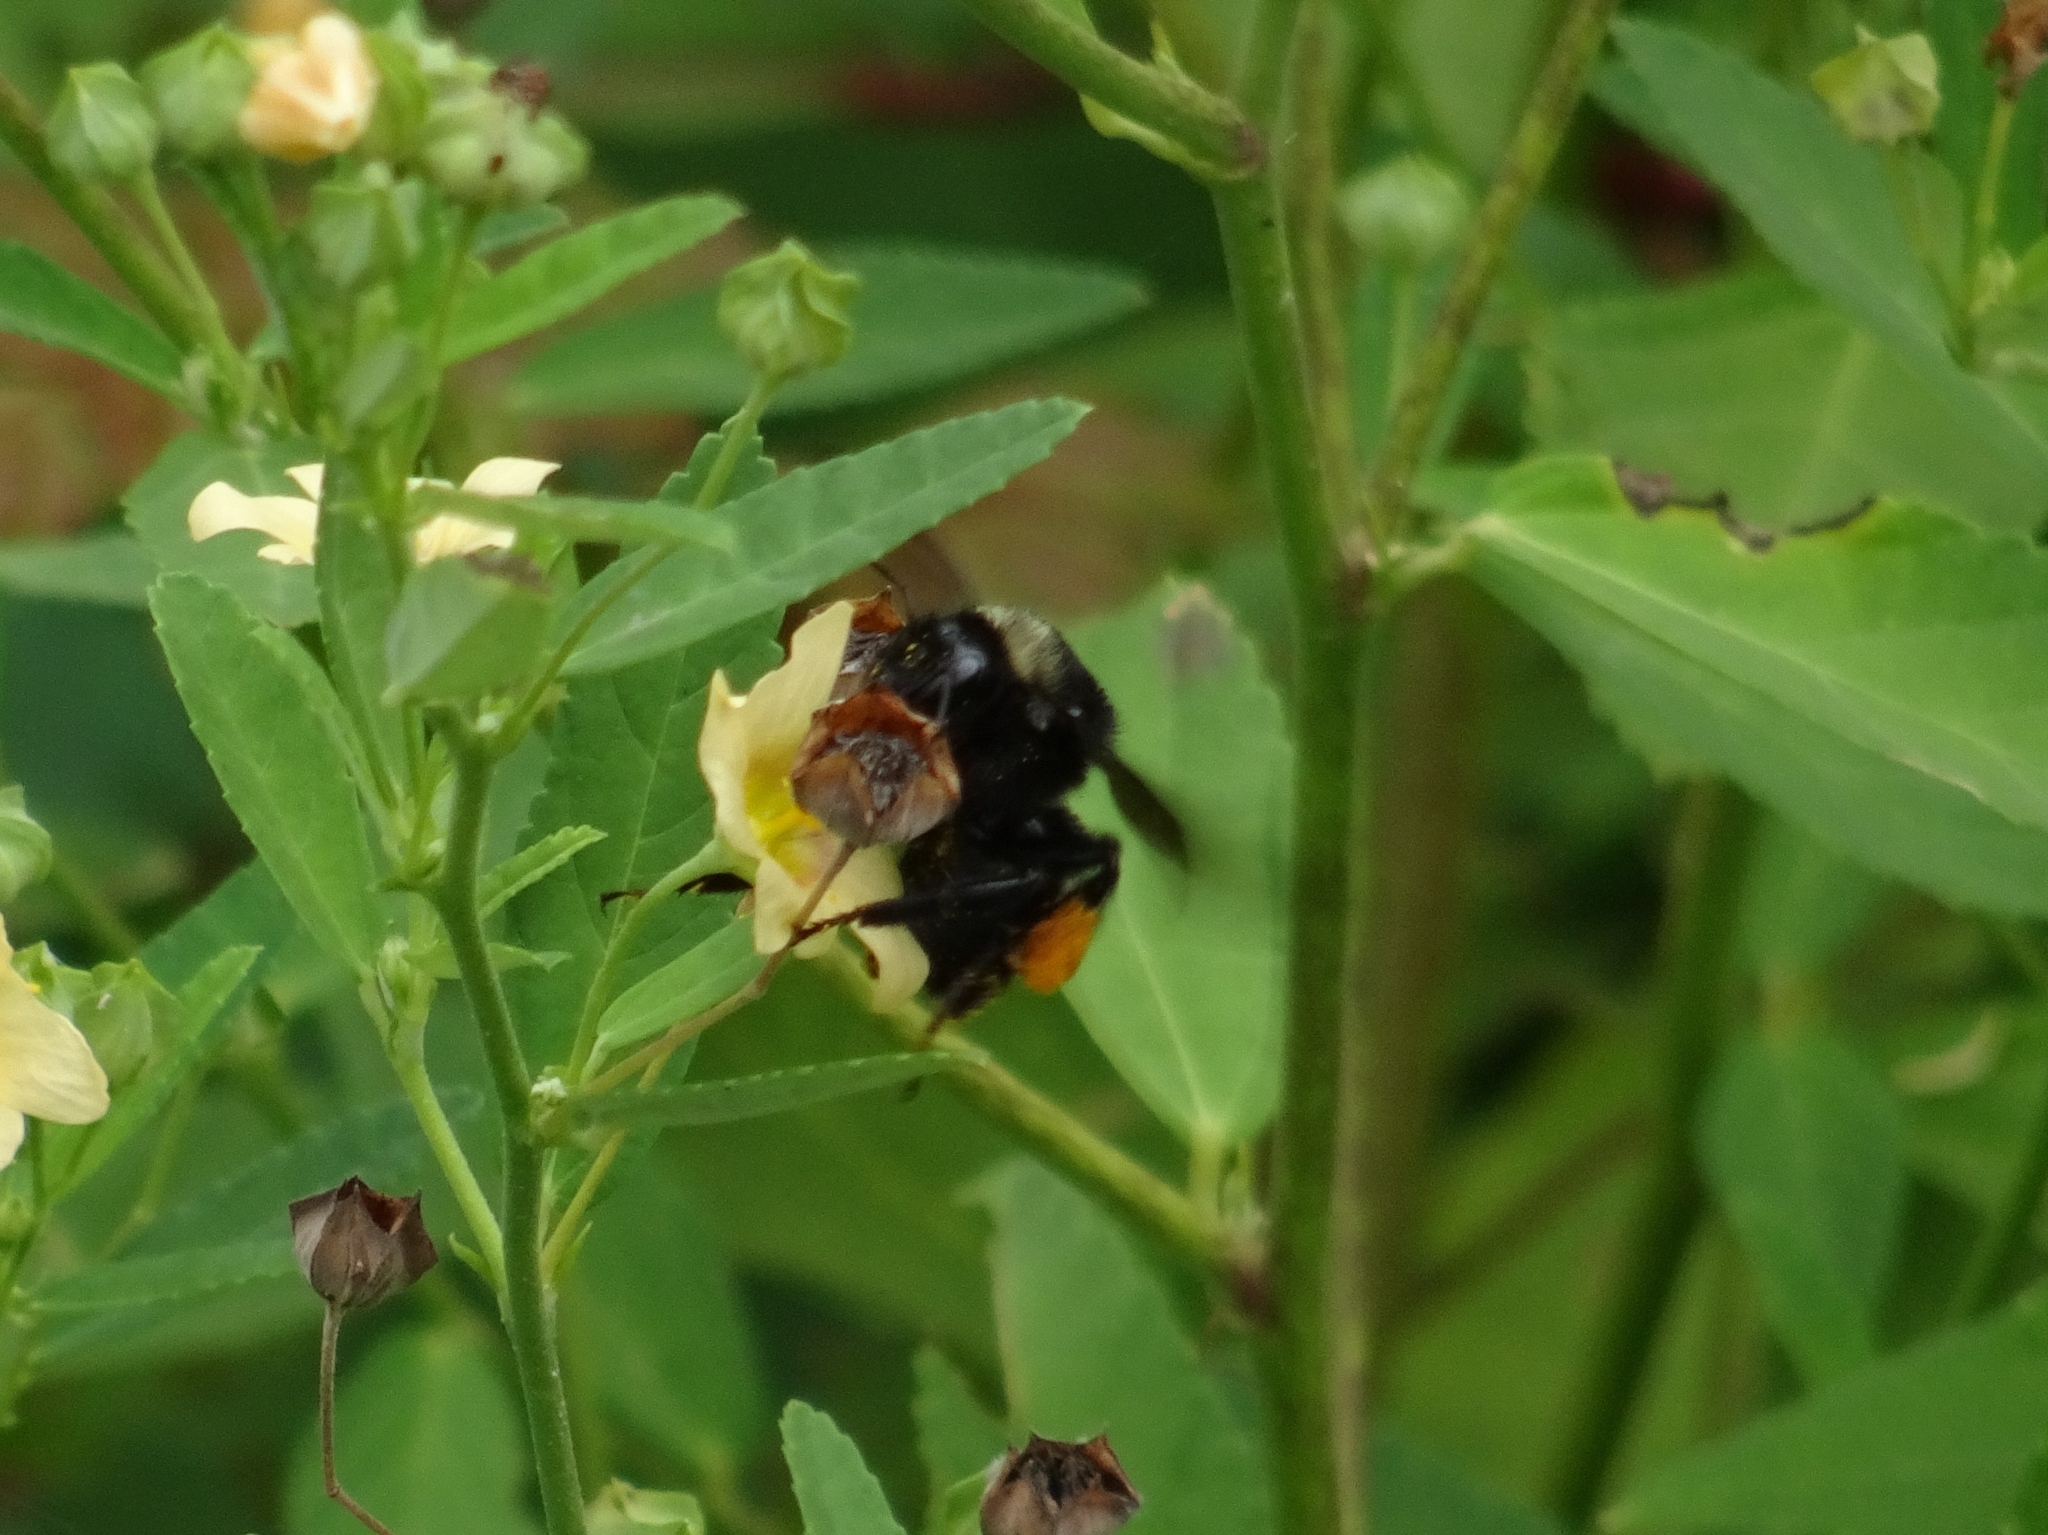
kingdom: Animalia
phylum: Arthropoda
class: Insecta
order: Hymenoptera
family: Apidae
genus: Bombus
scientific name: Bombus pensylvanicus
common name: Bumble bee
